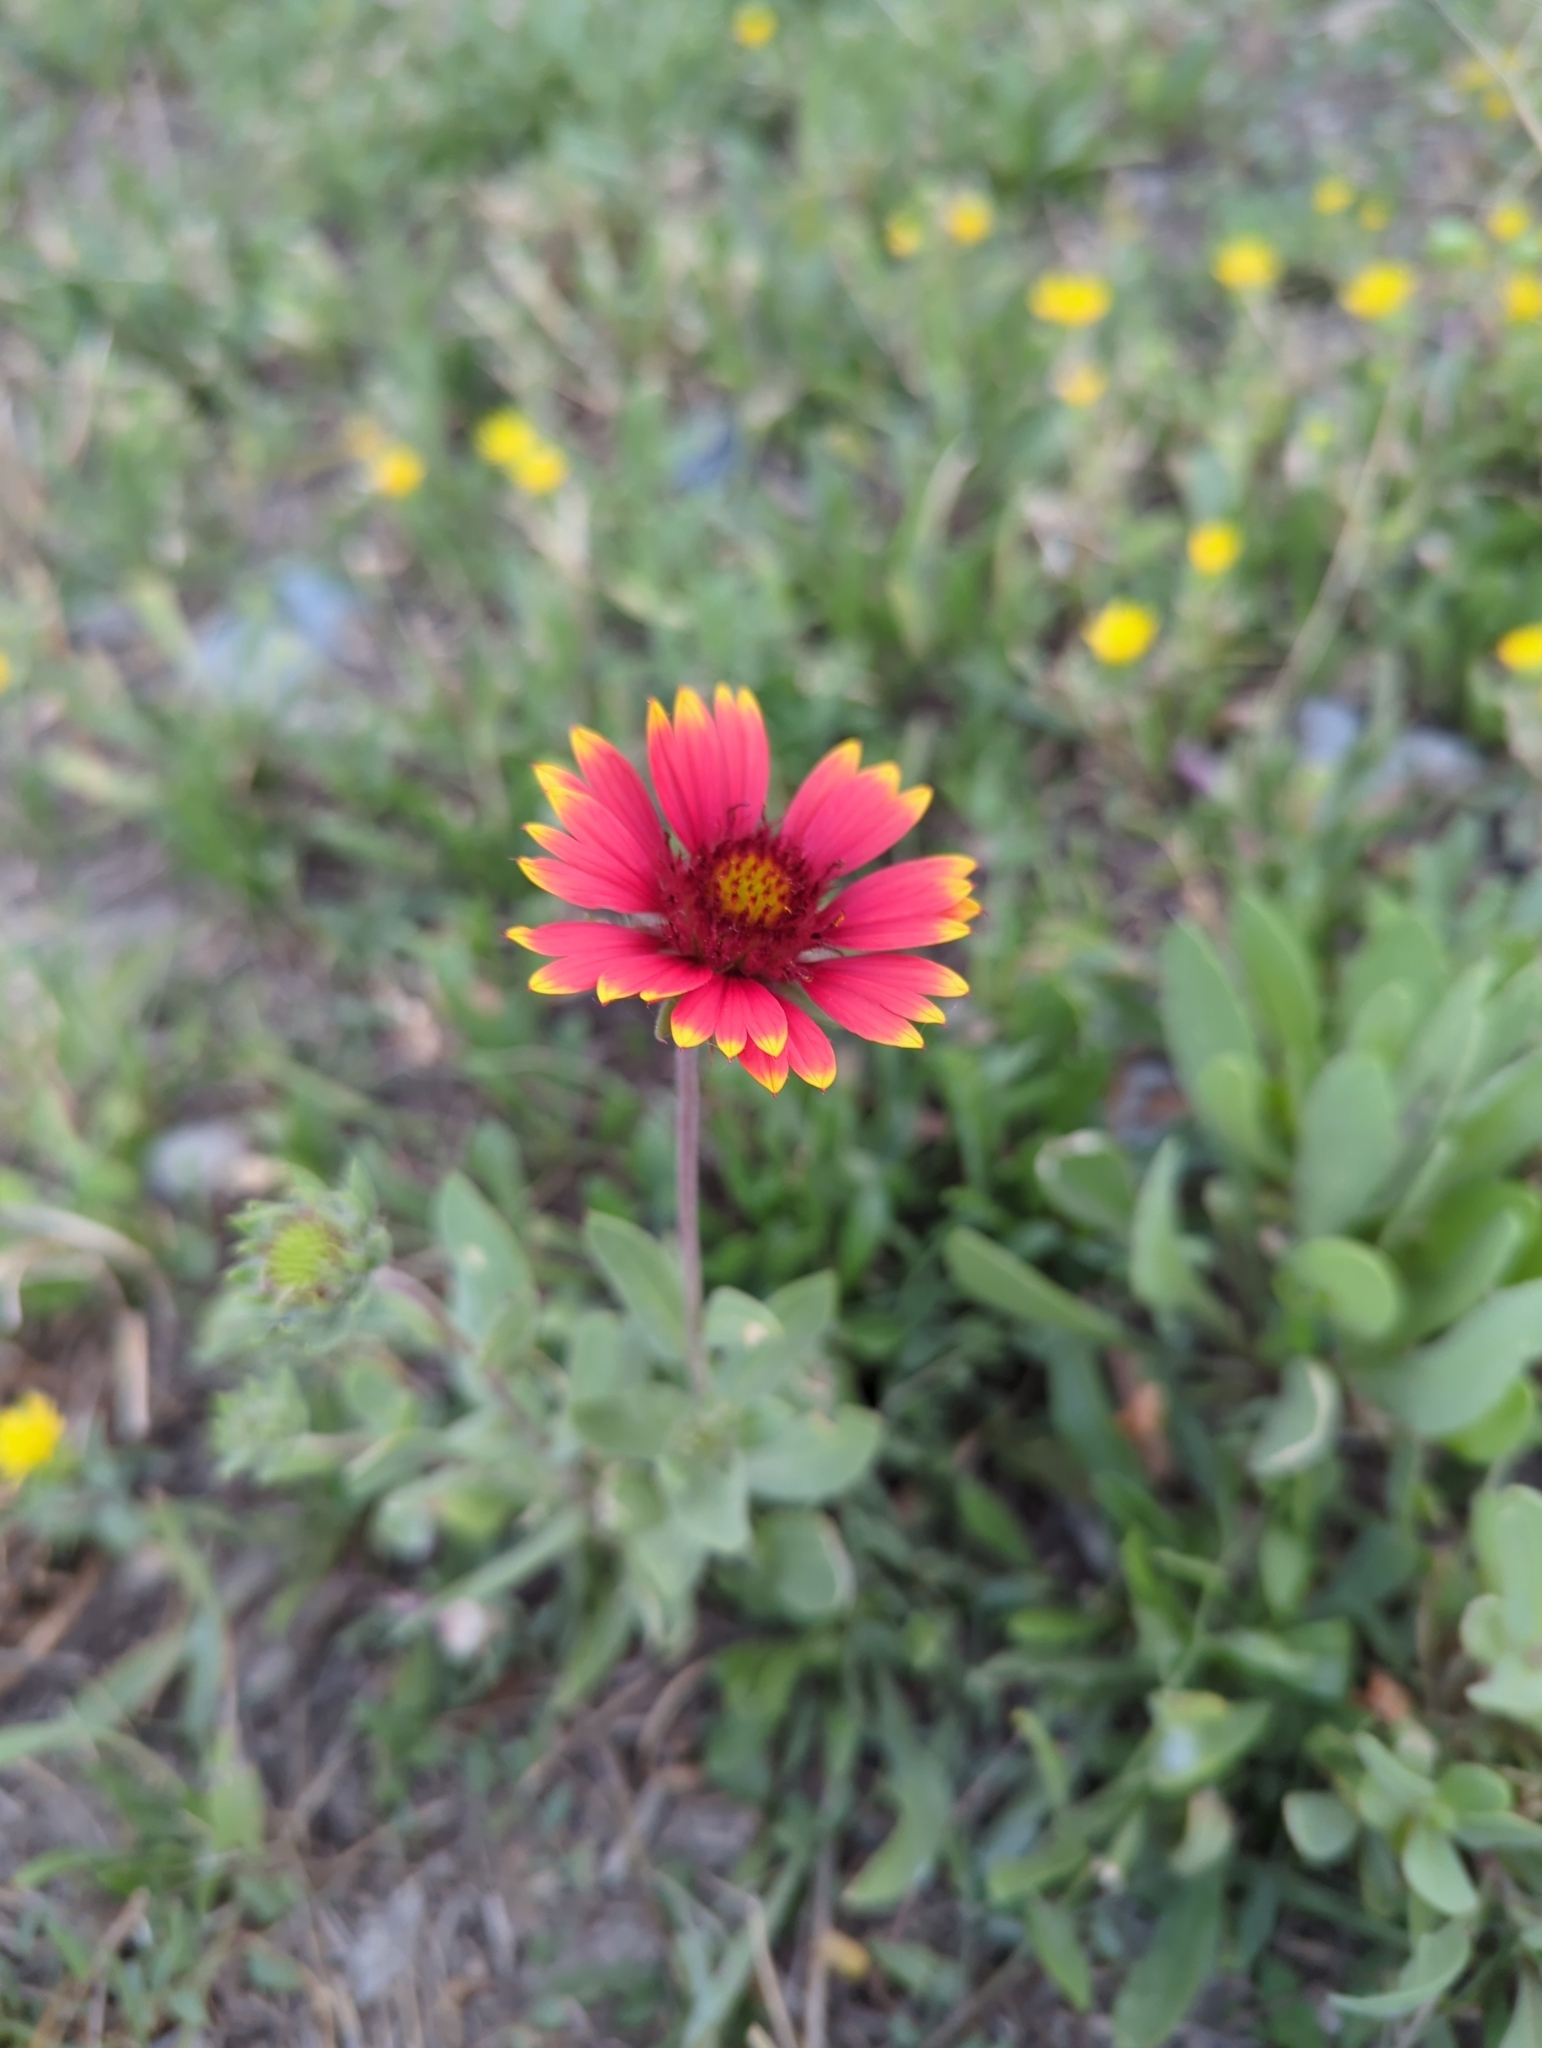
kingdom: Plantae
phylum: Tracheophyta
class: Magnoliopsida
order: Asterales
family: Asteraceae
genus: Gaillardia
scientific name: Gaillardia aristata
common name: Blanket-flower
